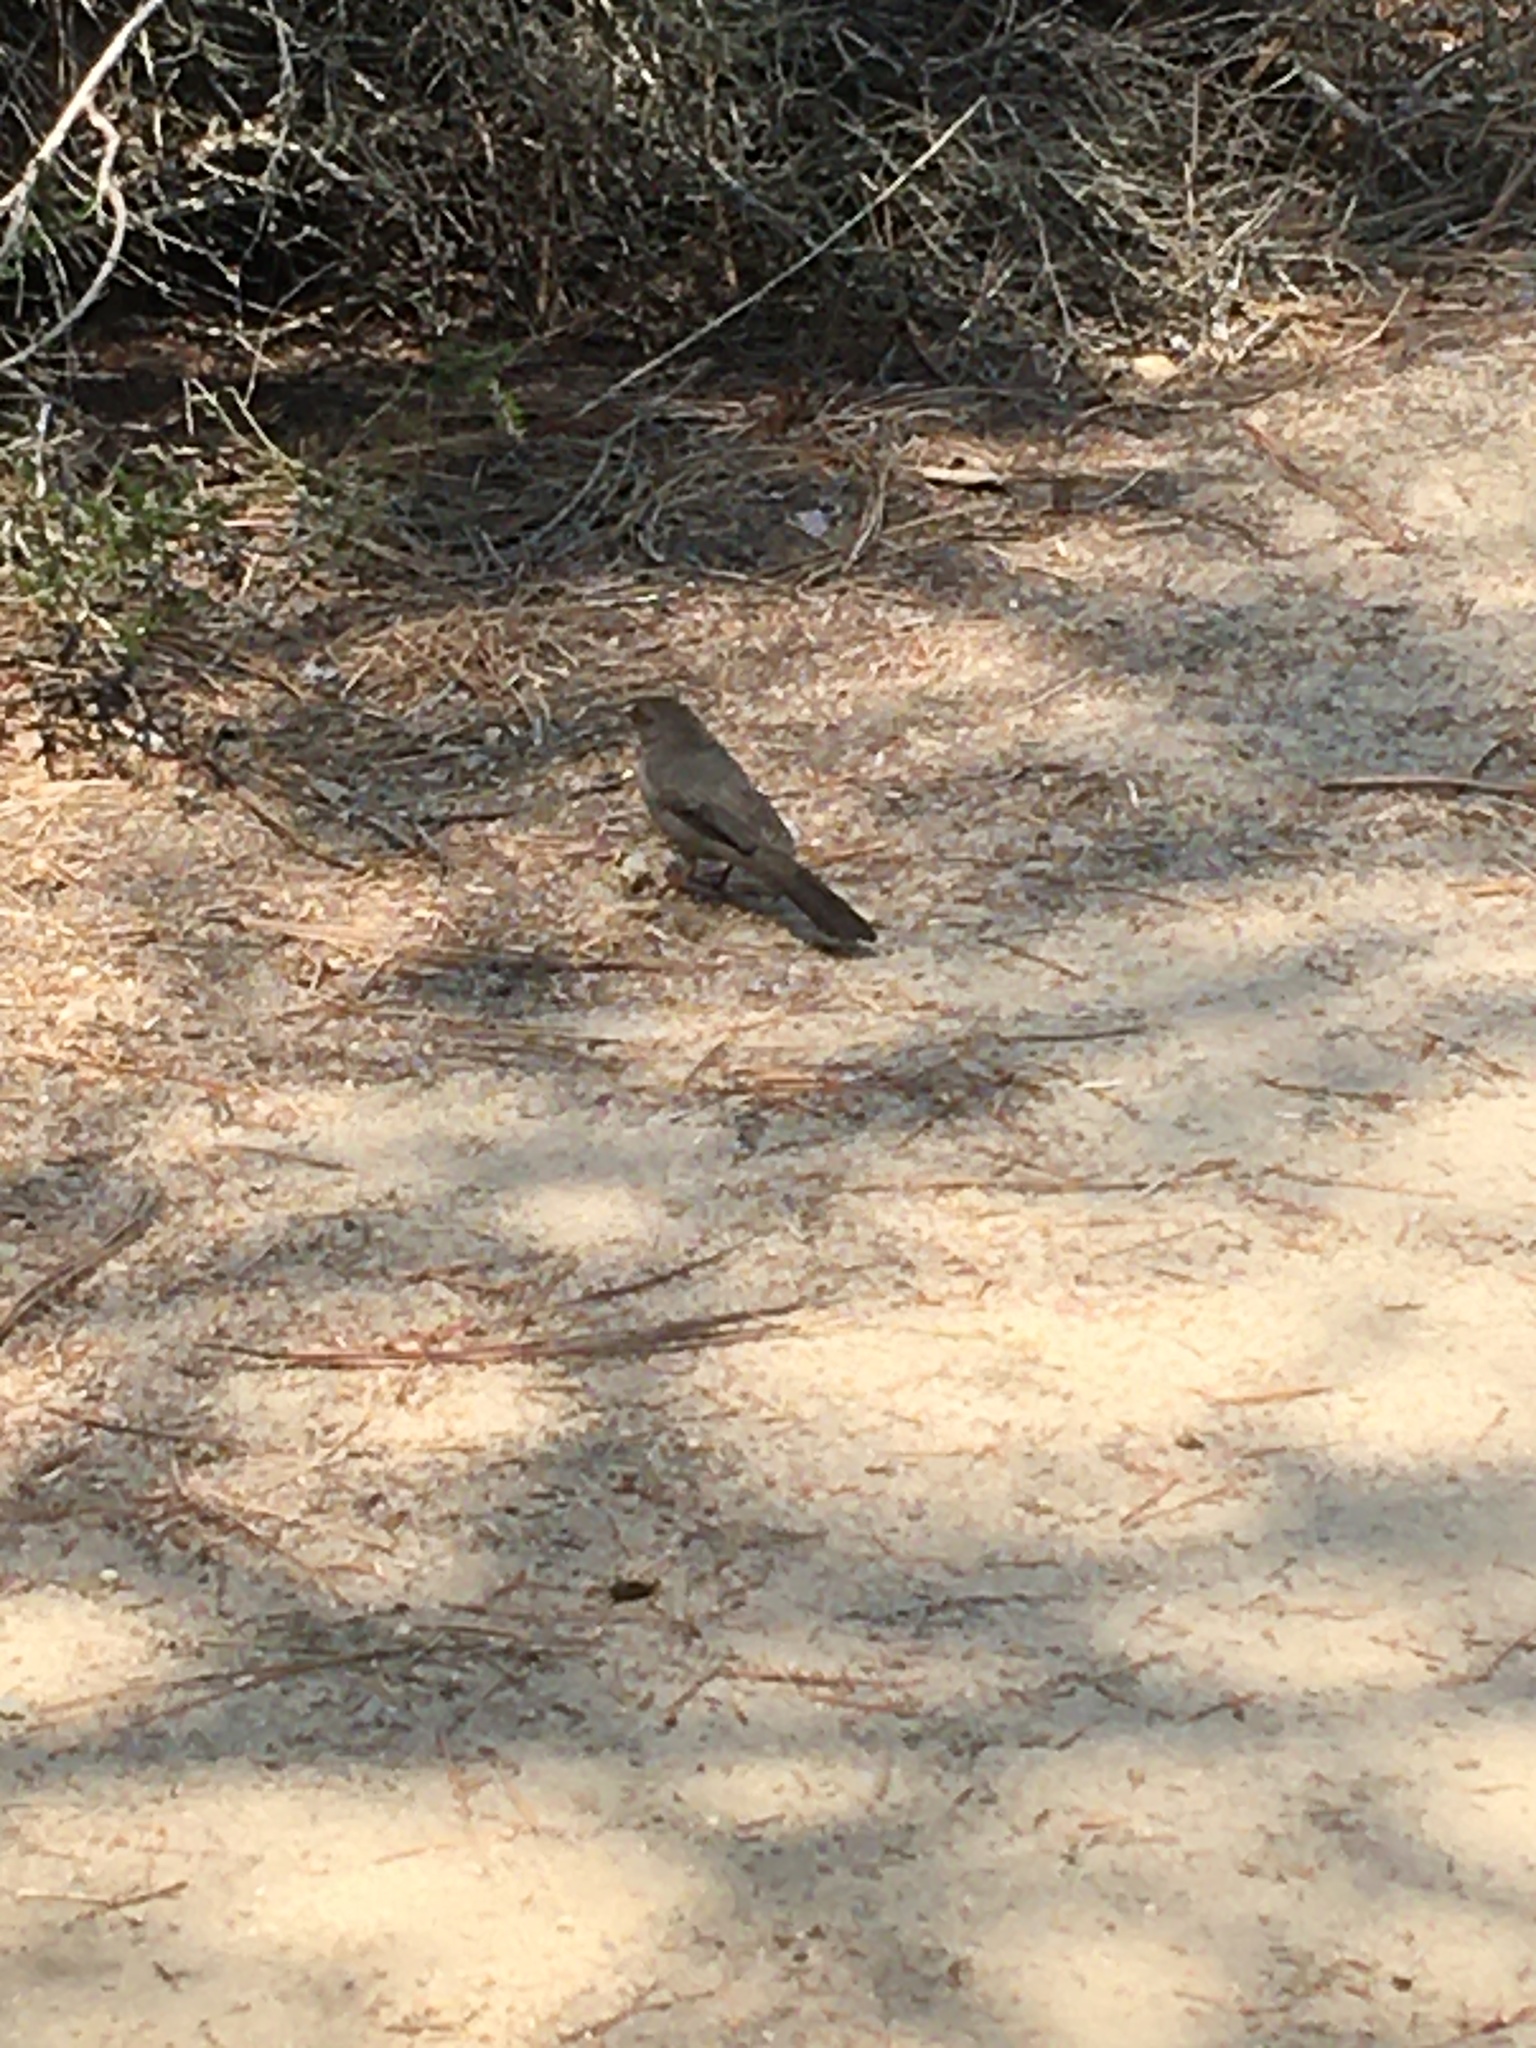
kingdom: Animalia
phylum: Chordata
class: Aves
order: Passeriformes
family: Passerellidae
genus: Melozone
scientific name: Melozone crissalis
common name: California towhee
